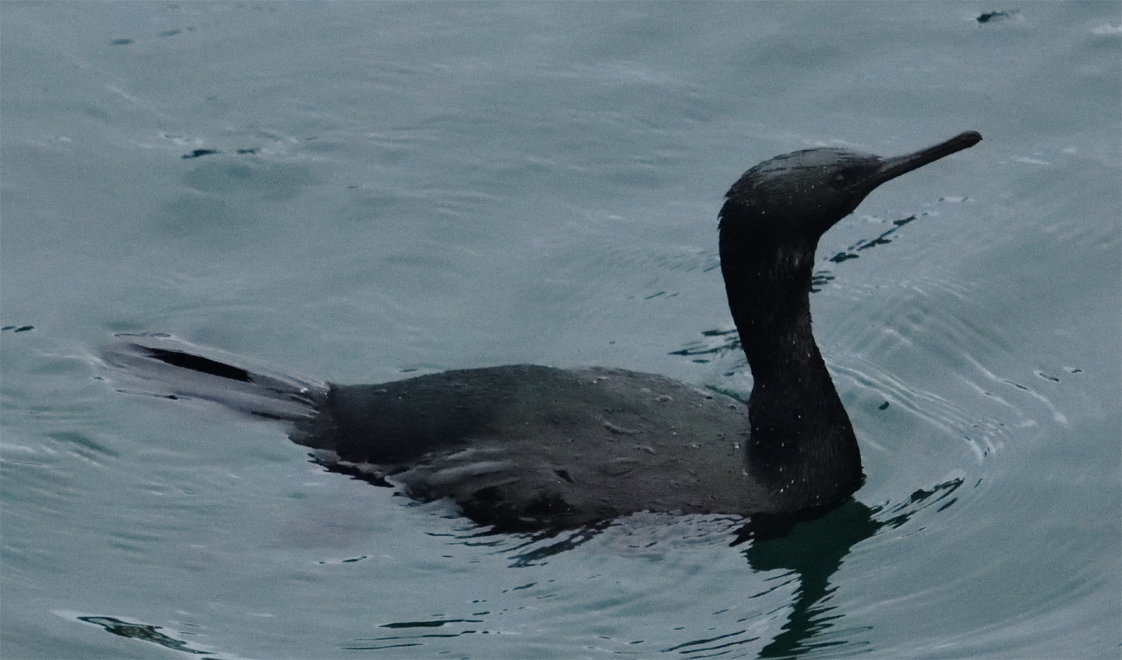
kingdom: Animalia
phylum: Chordata
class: Aves
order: Suliformes
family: Phalacrocoracidae
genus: Phalacrocorax
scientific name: Phalacrocorax pelagicus
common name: Pelagic cormorant
